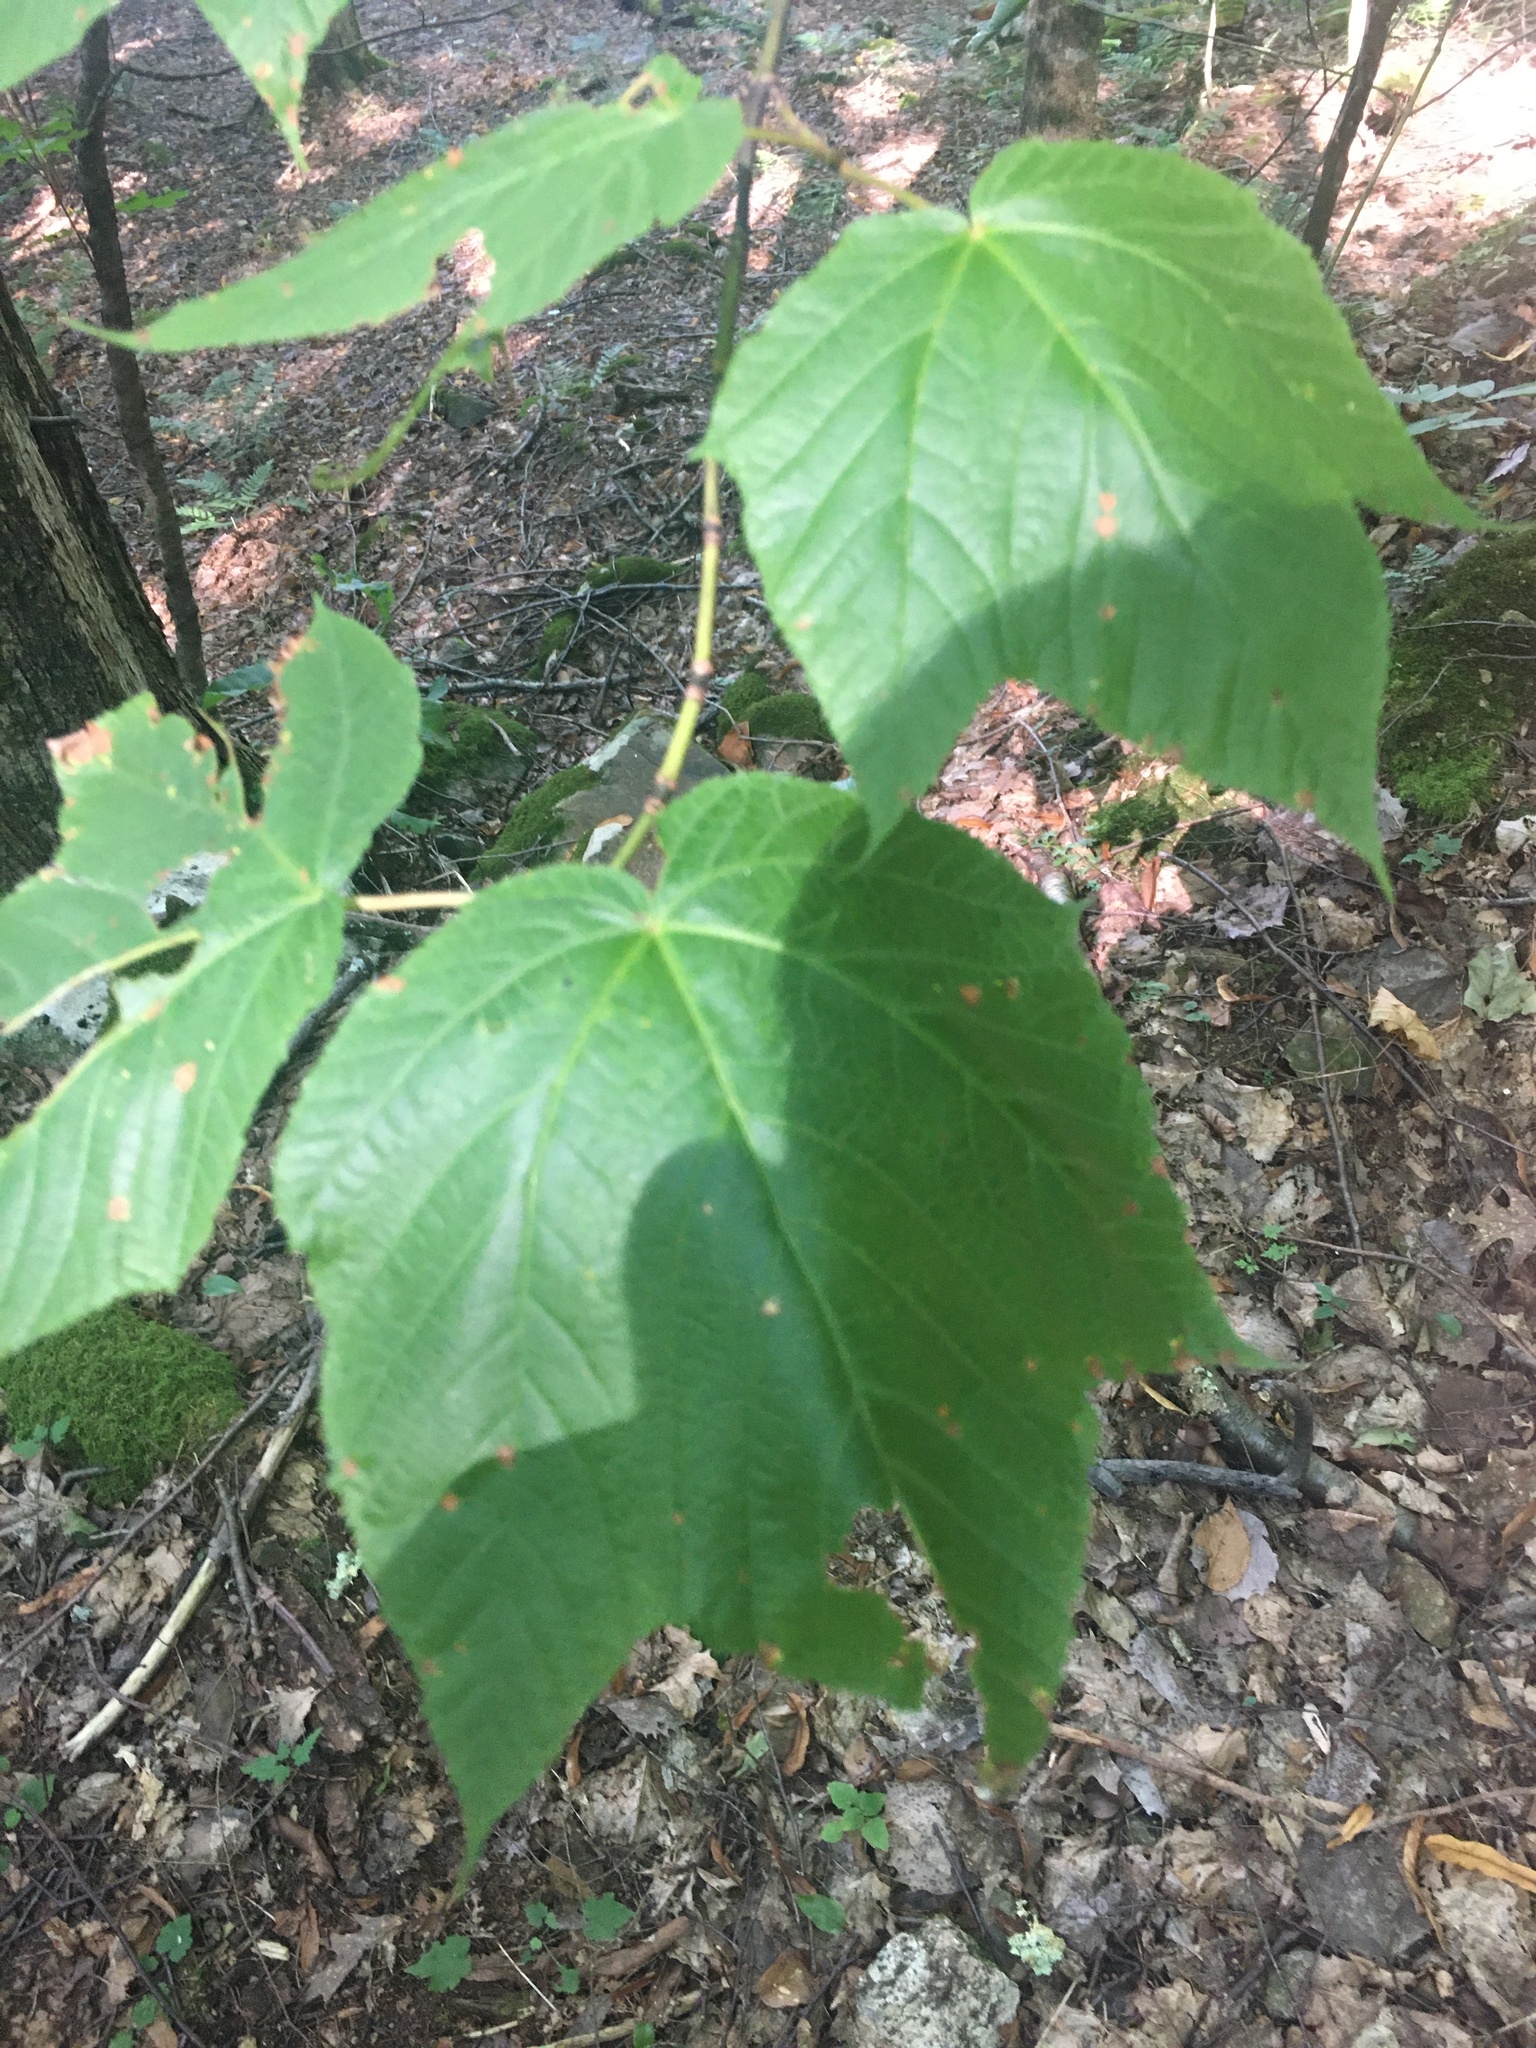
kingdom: Plantae
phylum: Tracheophyta
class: Magnoliopsida
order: Sapindales
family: Sapindaceae
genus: Acer
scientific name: Acer pensylvanicum
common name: Moosewood
